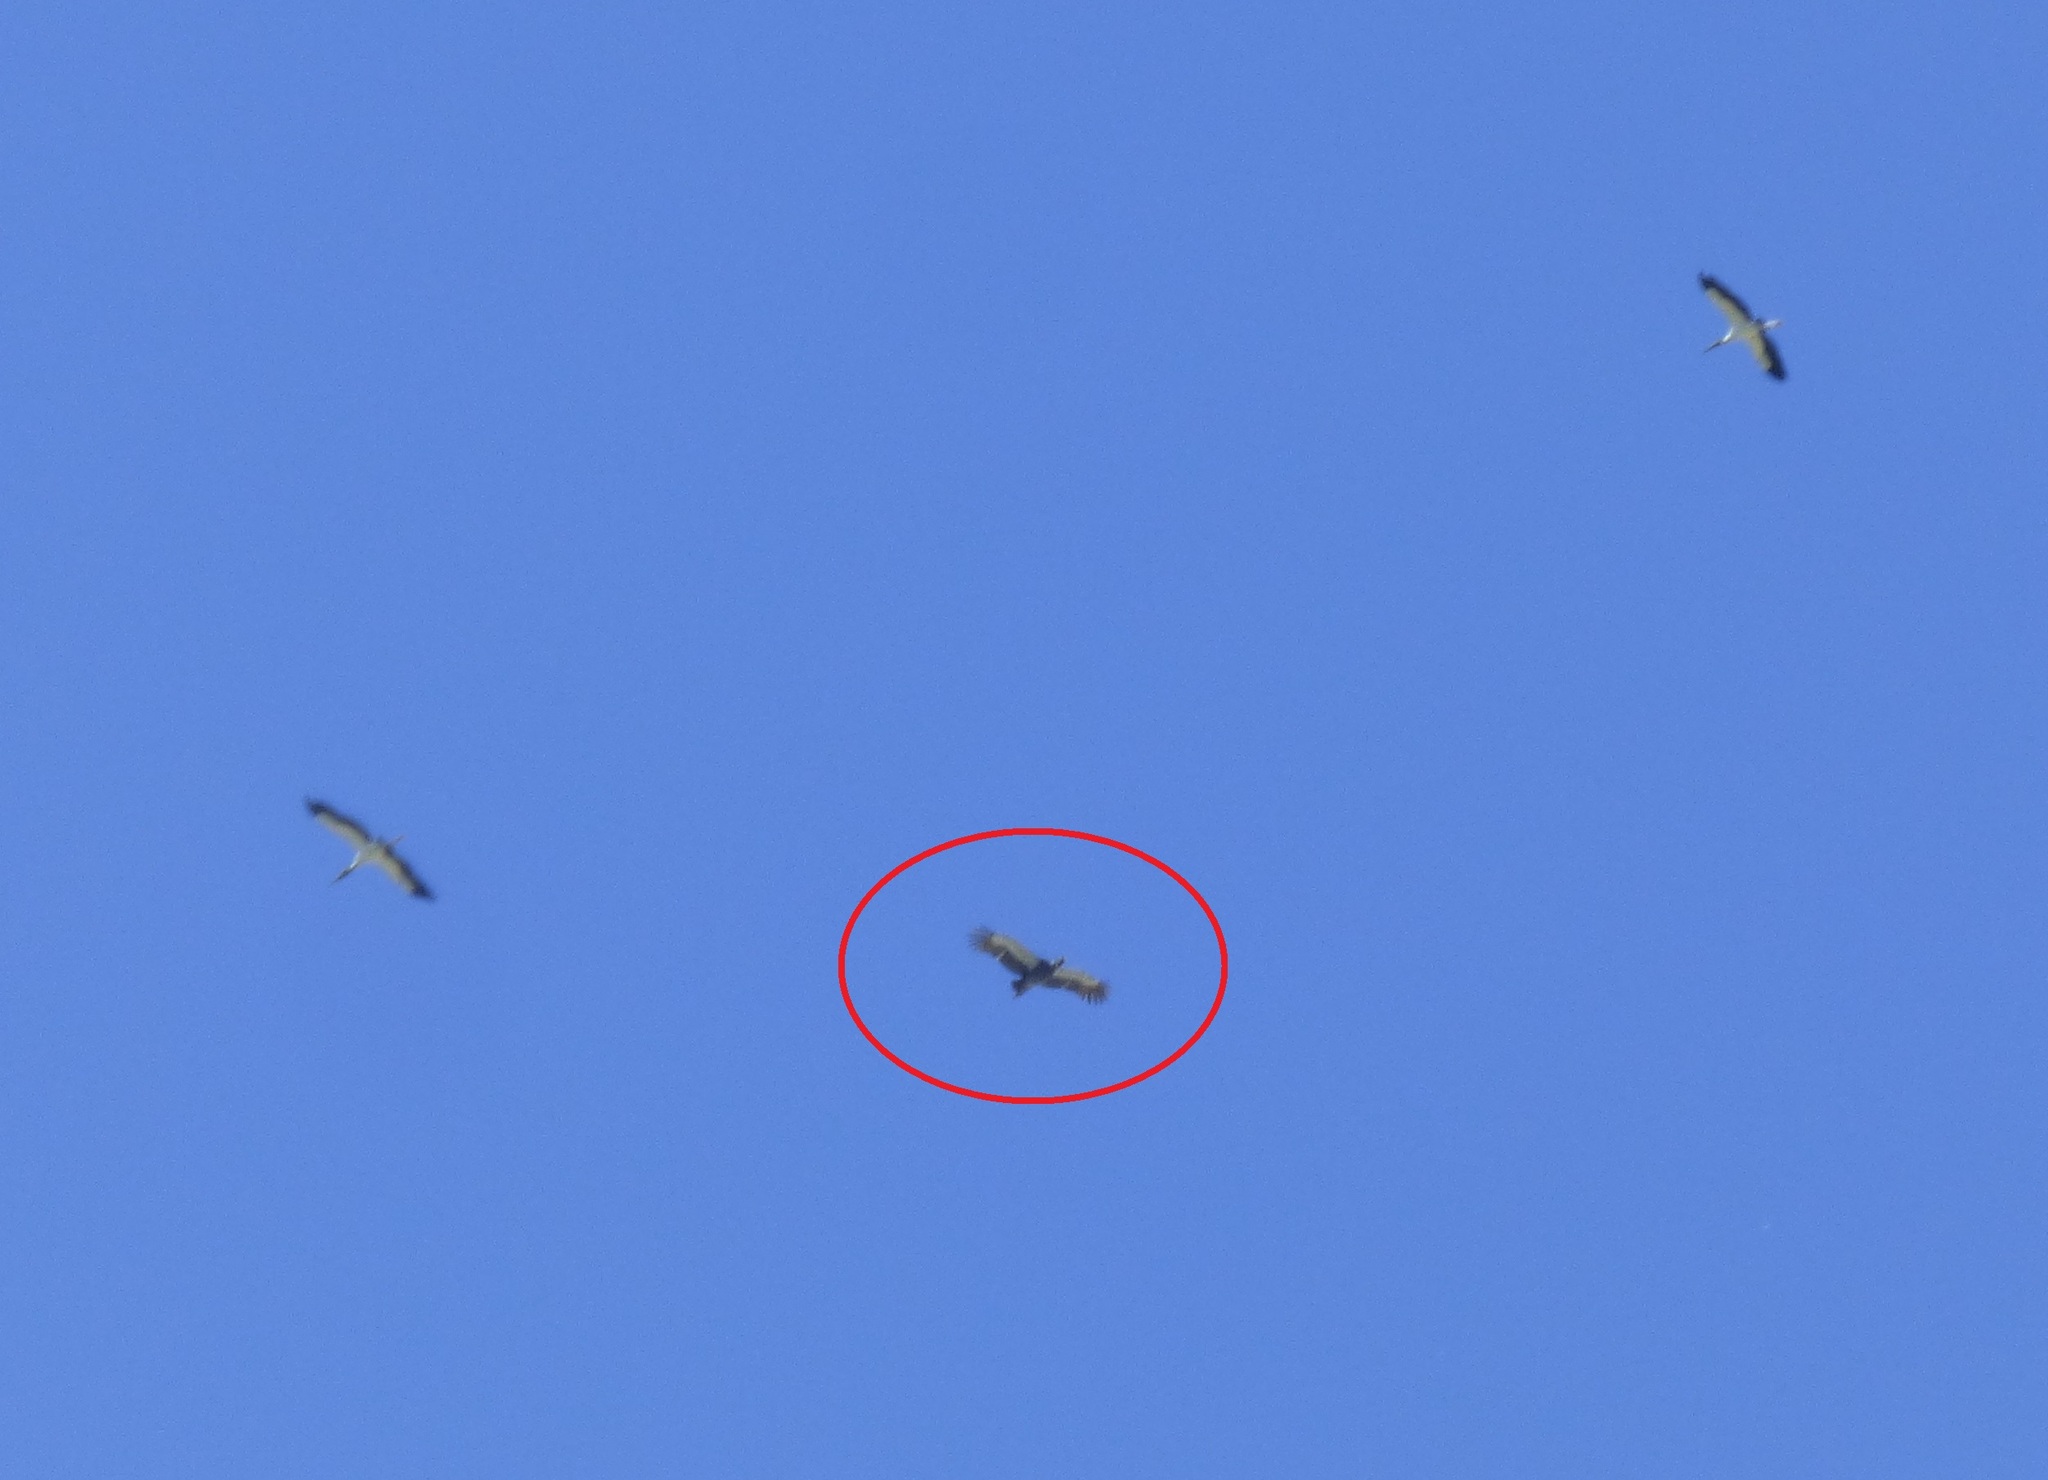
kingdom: Animalia
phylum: Chordata
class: Aves
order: Anseriformes
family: Anhimidae
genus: Chauna
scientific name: Chauna torquata
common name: Southern screamer
